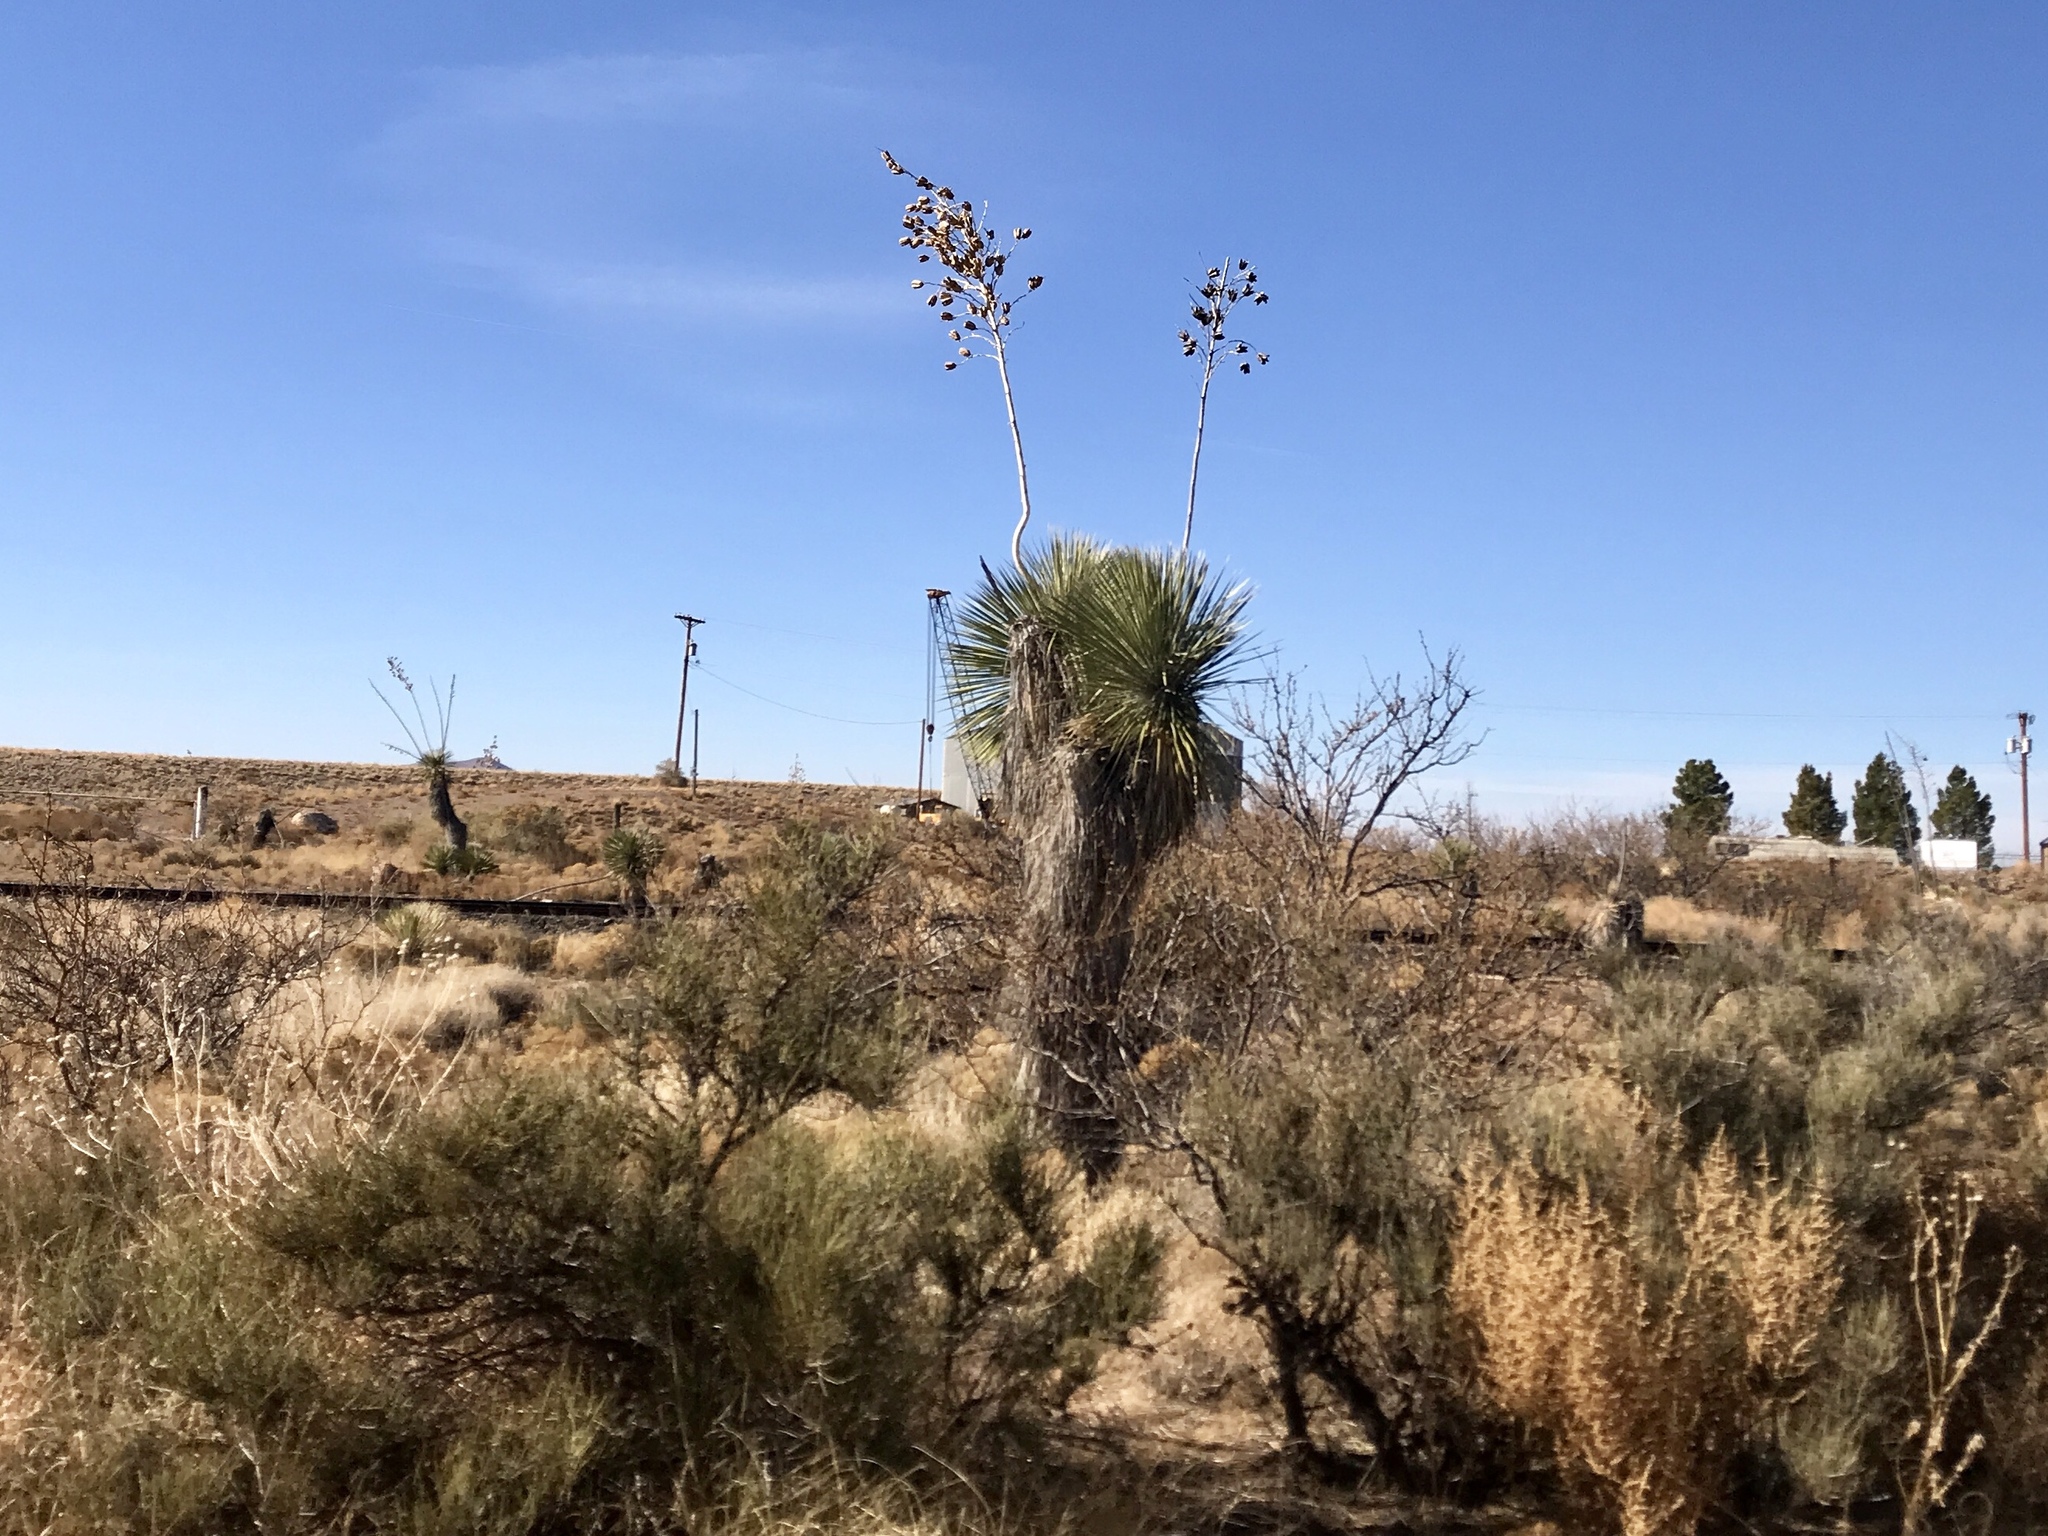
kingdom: Plantae
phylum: Tracheophyta
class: Liliopsida
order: Asparagales
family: Asparagaceae
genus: Yucca
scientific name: Yucca elata
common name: Palmella
